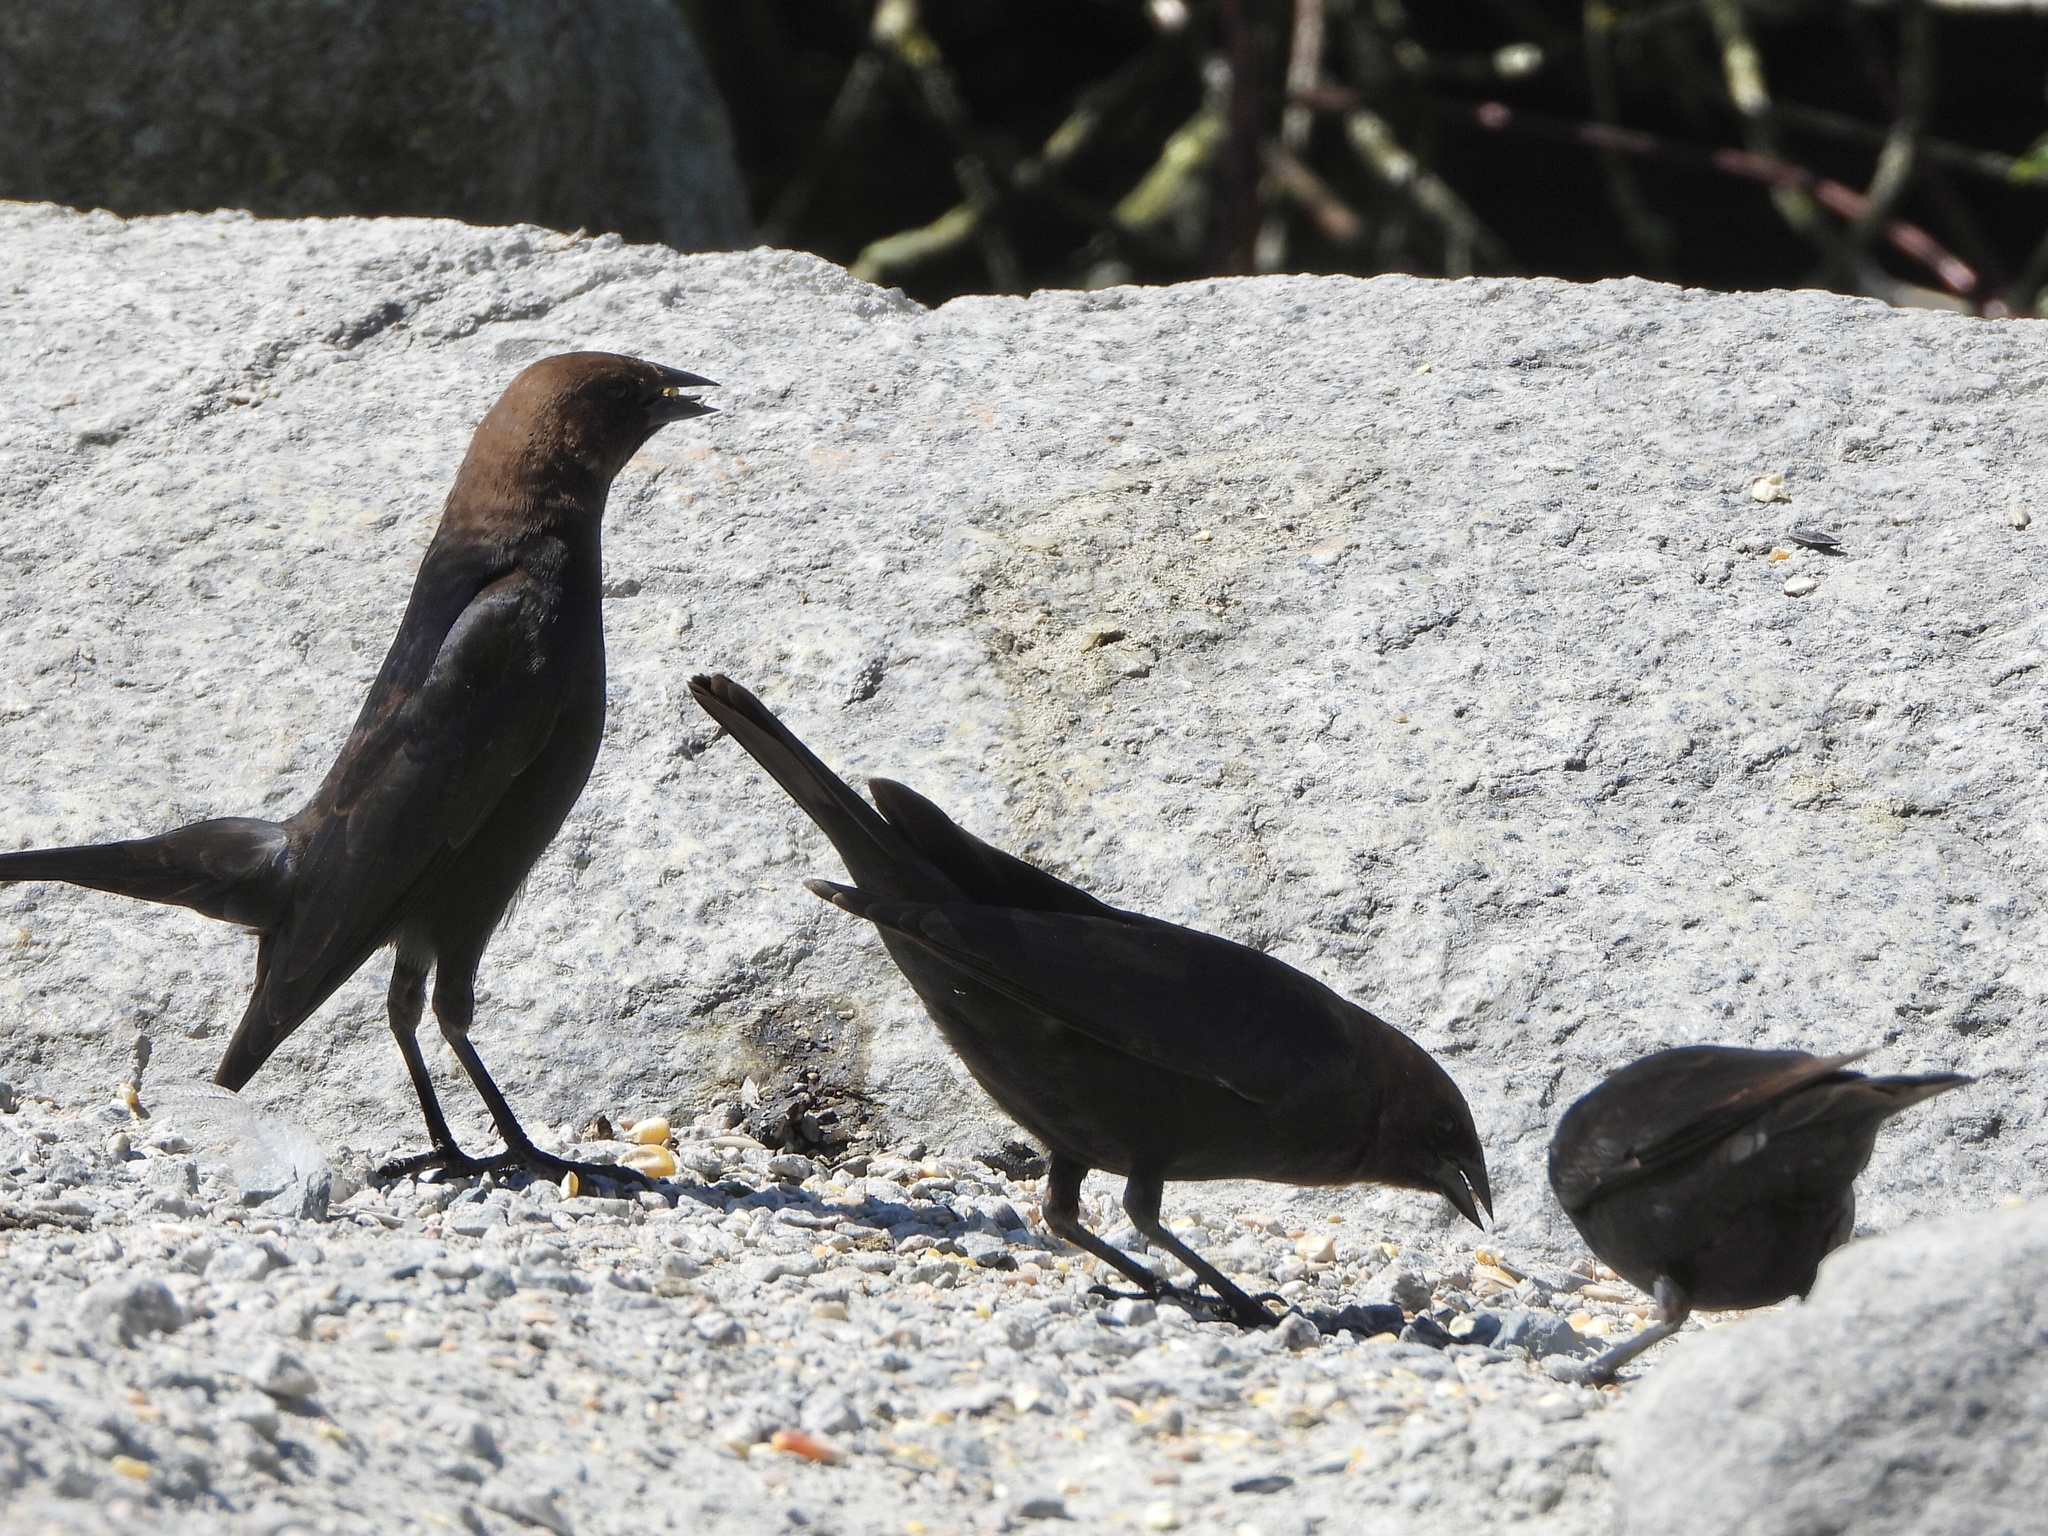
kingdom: Animalia
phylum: Chordata
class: Aves
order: Passeriformes
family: Icteridae
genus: Molothrus
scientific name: Molothrus ater
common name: Brown-headed cowbird
